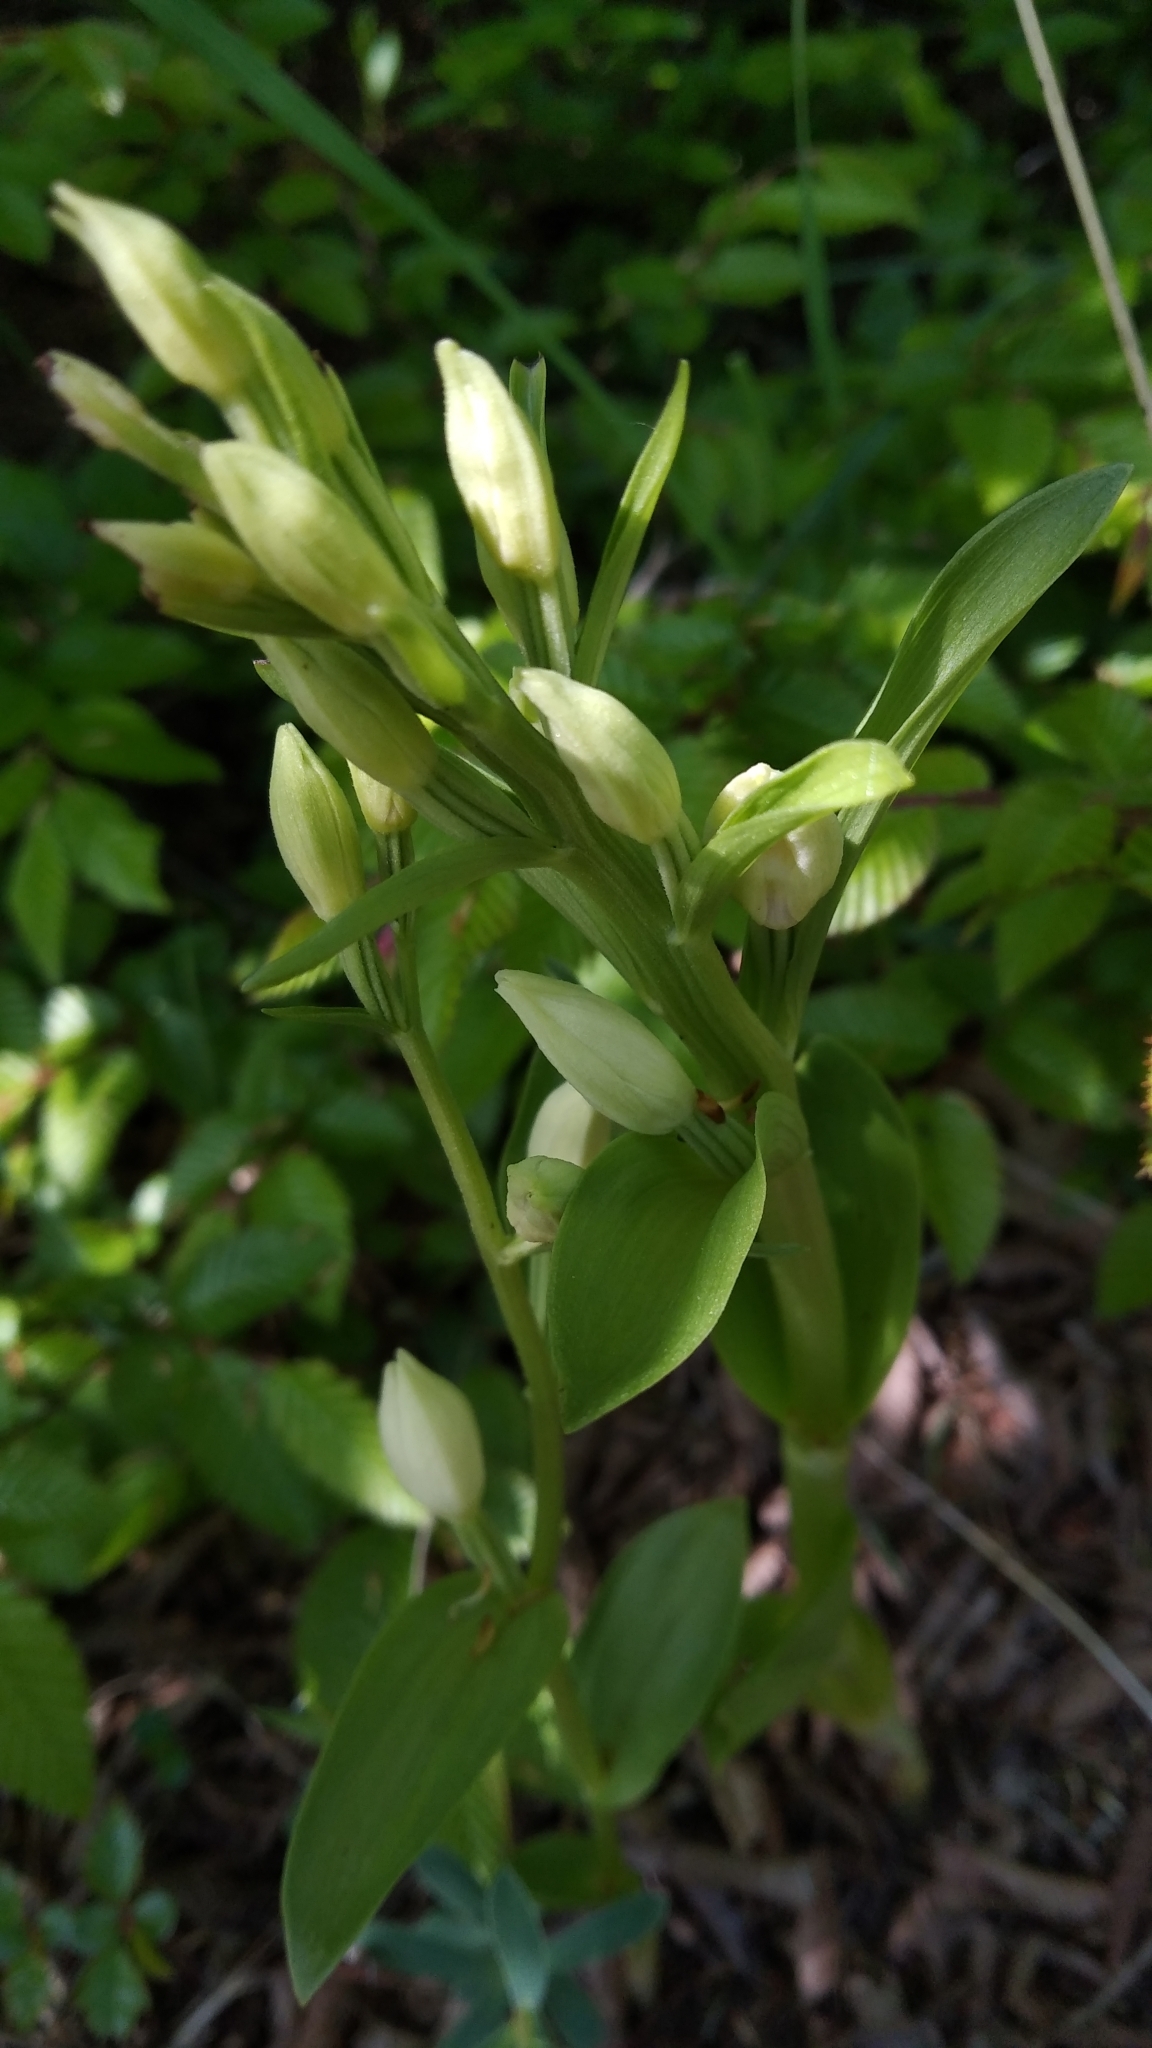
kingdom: Plantae
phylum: Tracheophyta
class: Liliopsida
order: Asparagales
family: Orchidaceae
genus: Cephalanthera
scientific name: Cephalanthera damasonium
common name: White helleborine
